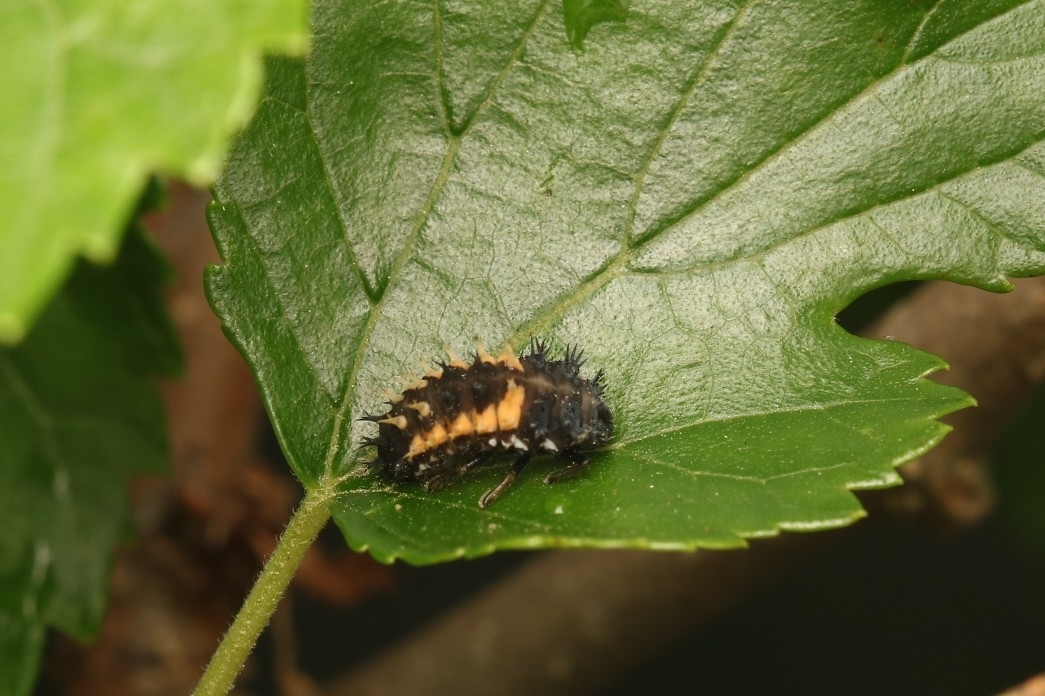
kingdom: Animalia
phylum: Arthropoda
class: Insecta
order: Coleoptera
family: Coccinellidae
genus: Harmonia
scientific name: Harmonia axyridis
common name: Harlequin ladybird
